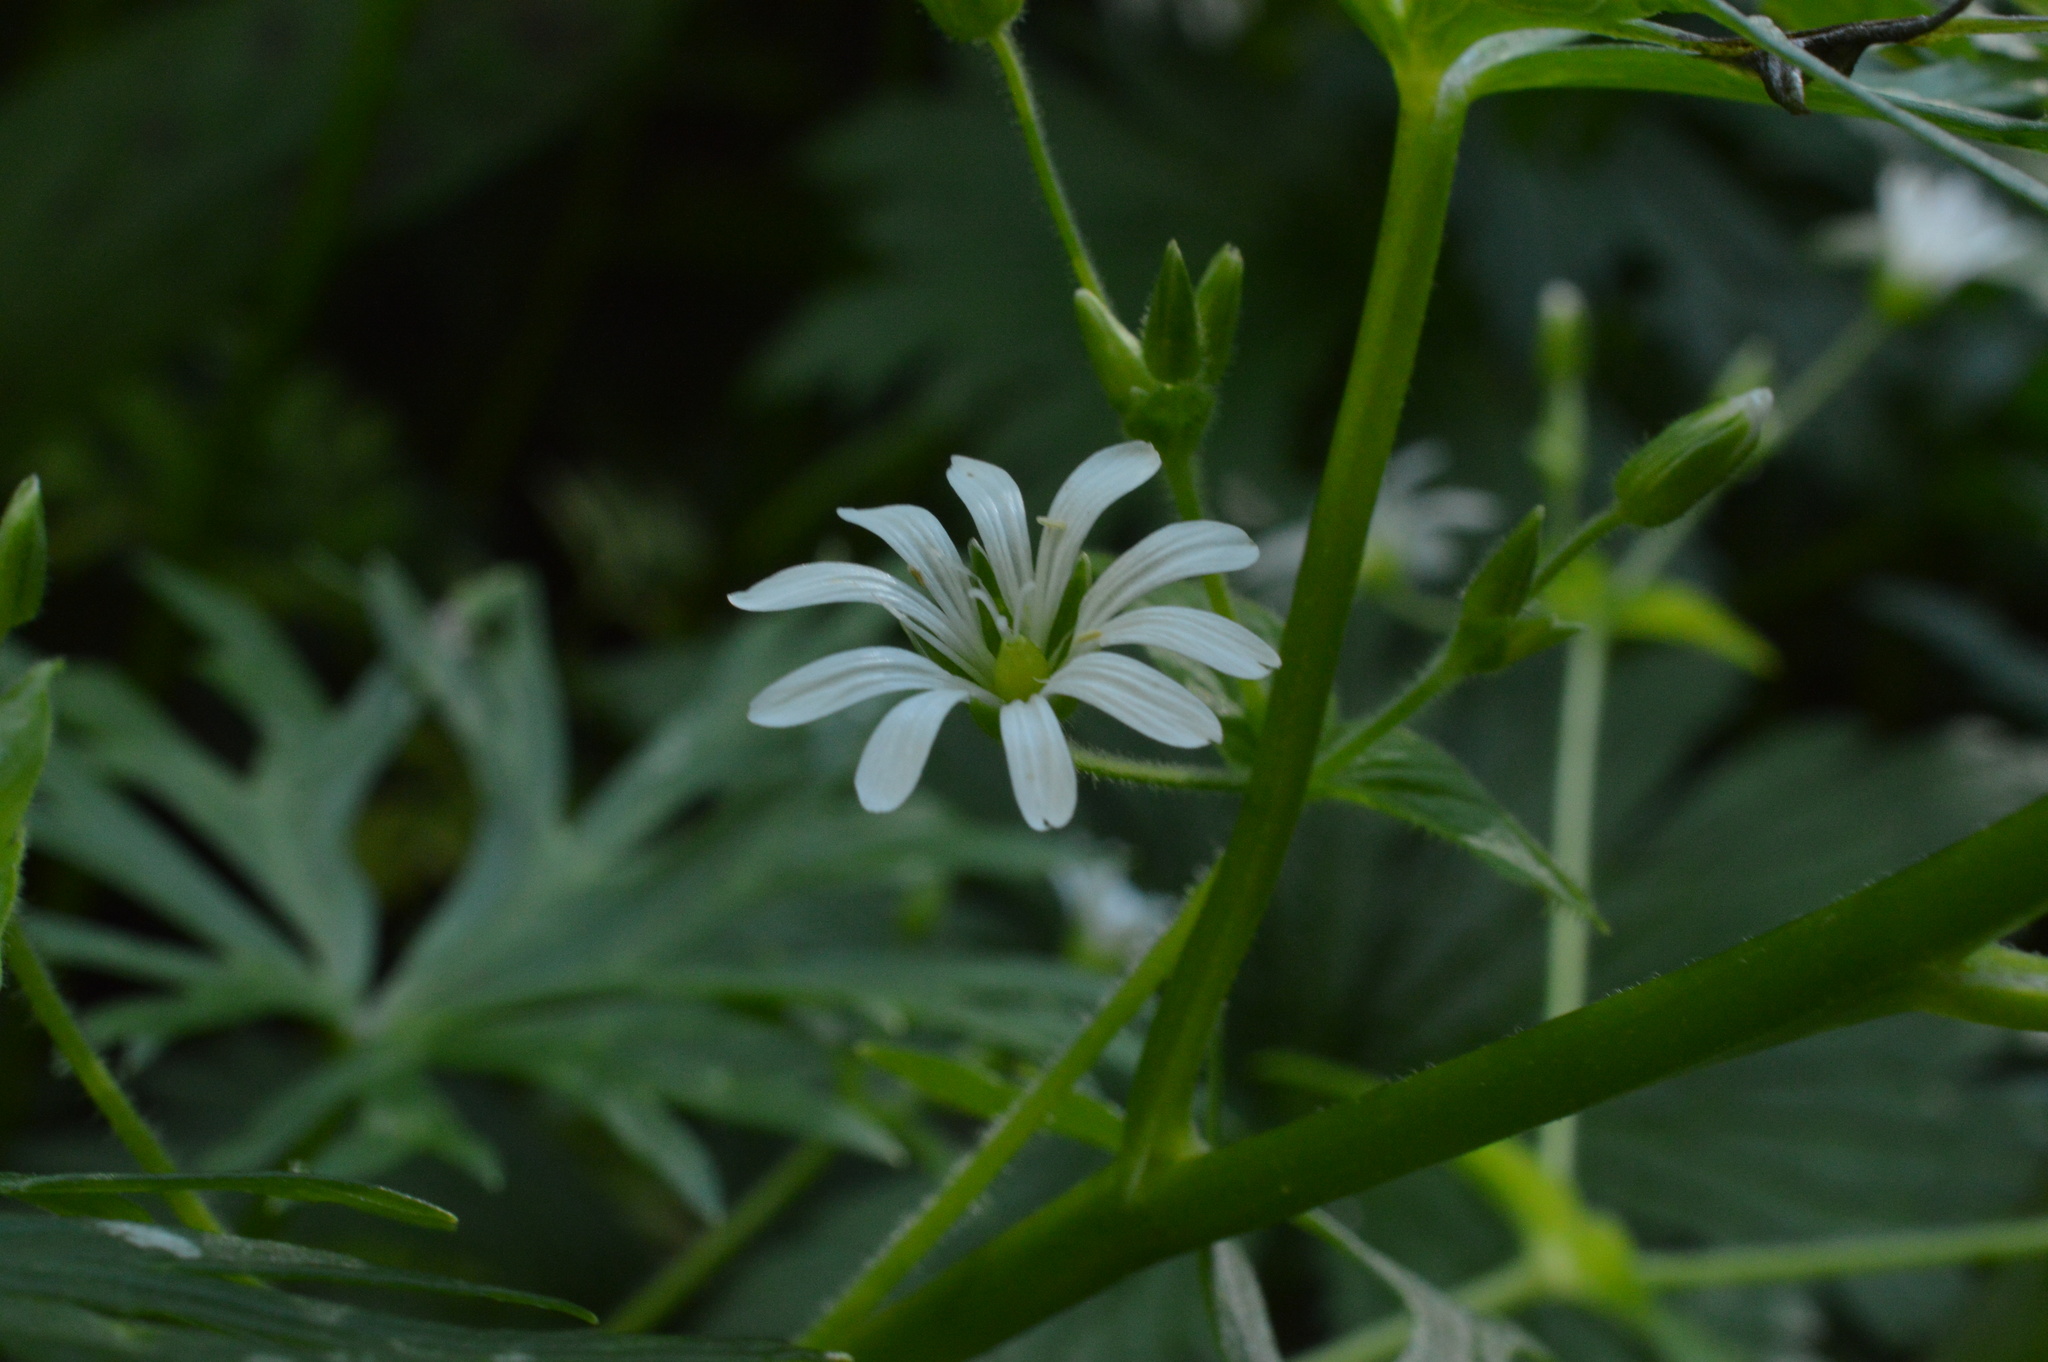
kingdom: Plantae
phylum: Tracheophyta
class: Magnoliopsida
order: Caryophyllales
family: Caryophyllaceae
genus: Stellaria
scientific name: Stellaria nemorum
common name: Wood stitchwort
